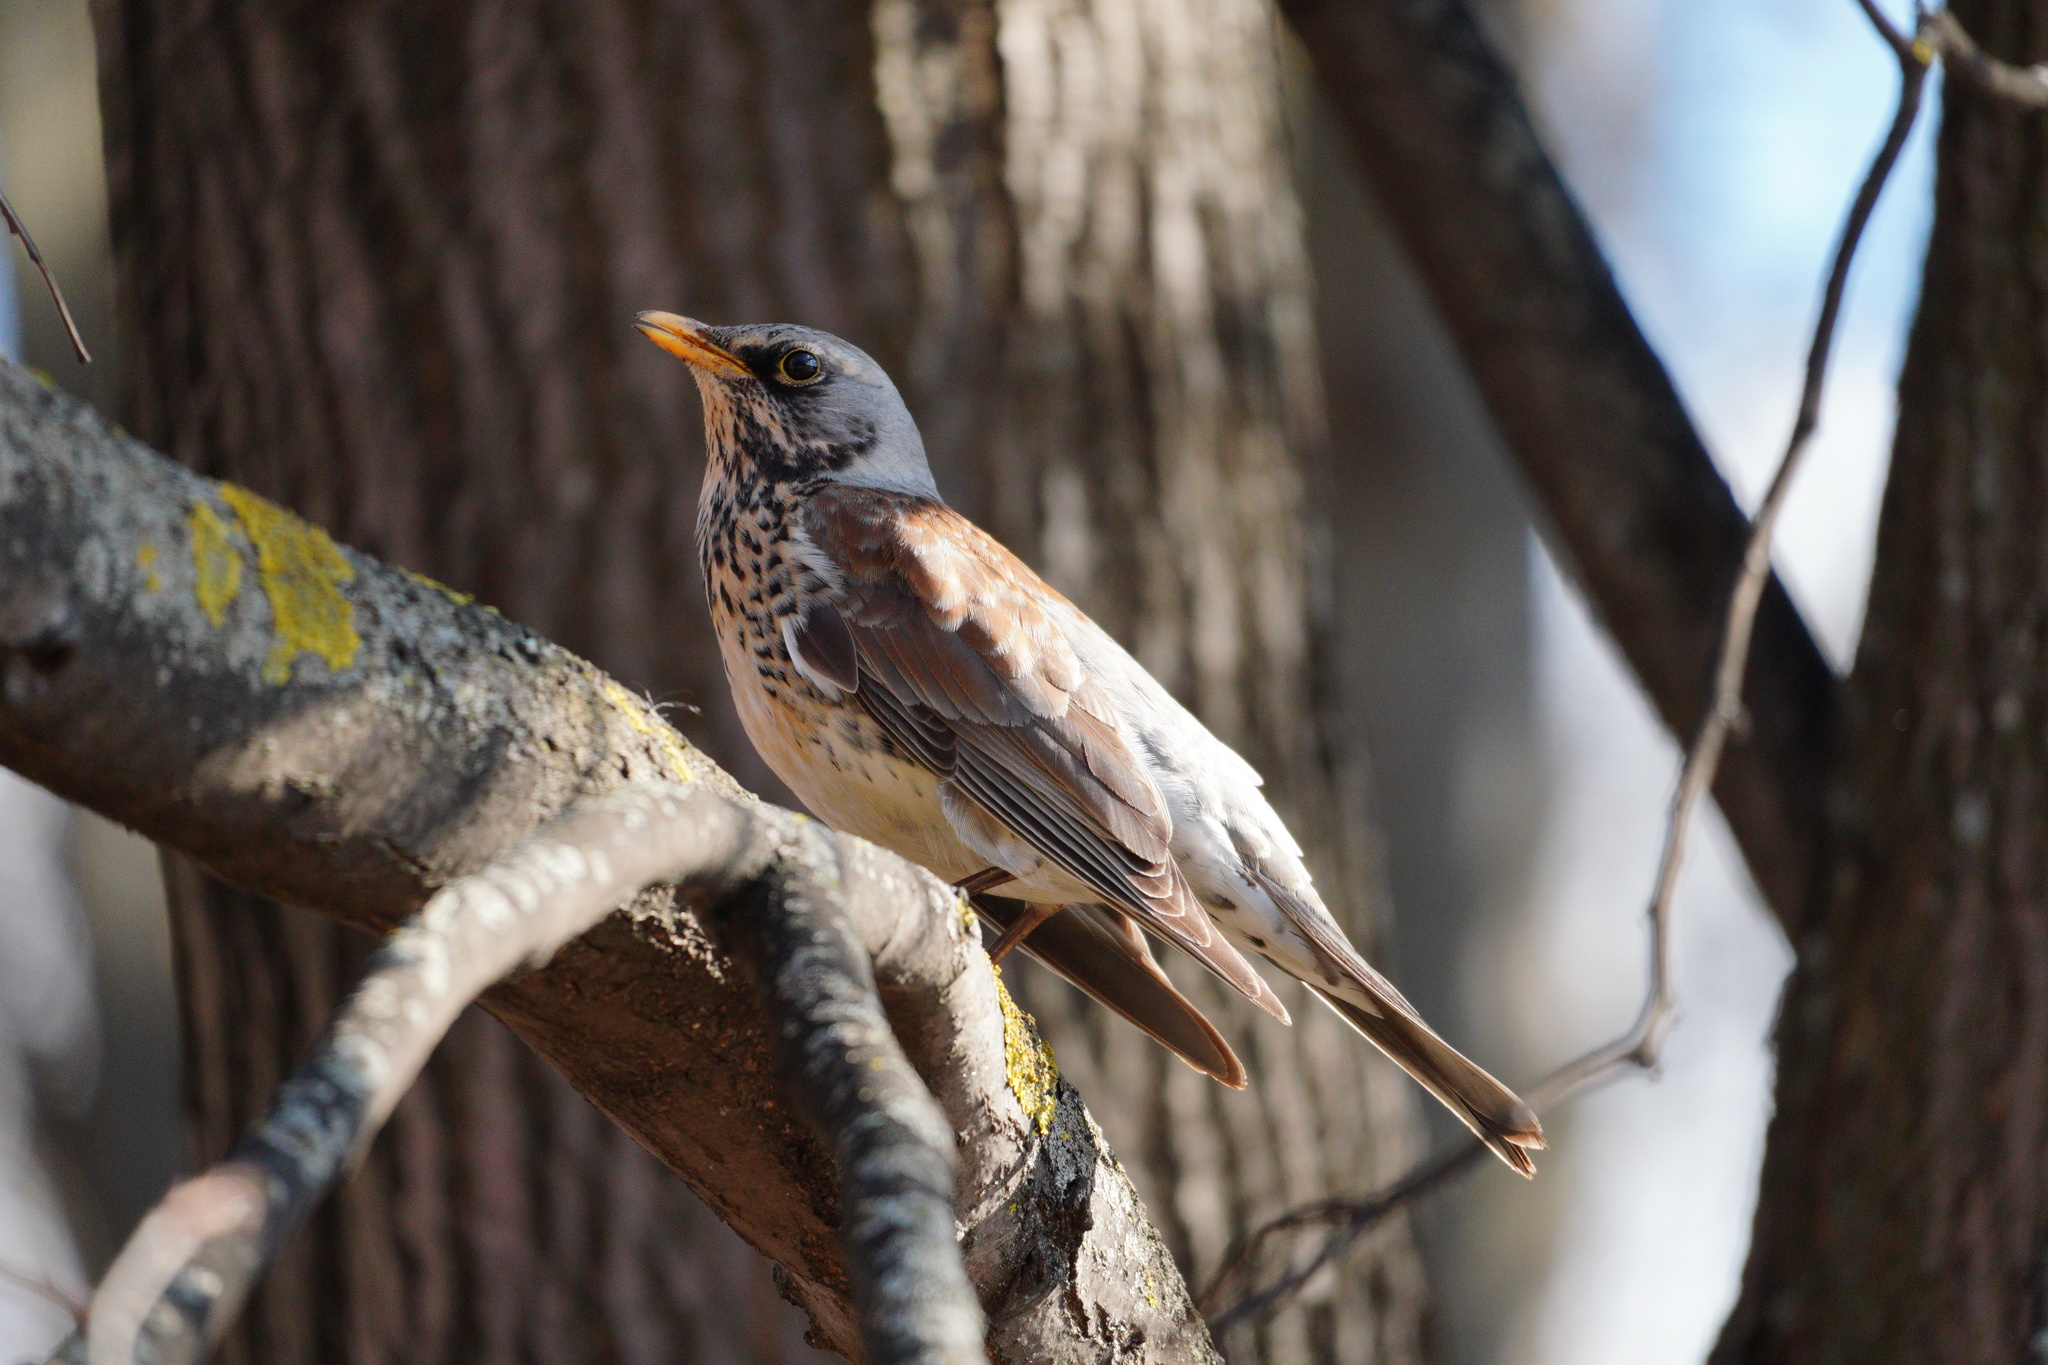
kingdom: Animalia
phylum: Chordata
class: Aves
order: Passeriformes
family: Turdidae
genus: Turdus
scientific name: Turdus pilaris
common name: Fieldfare
